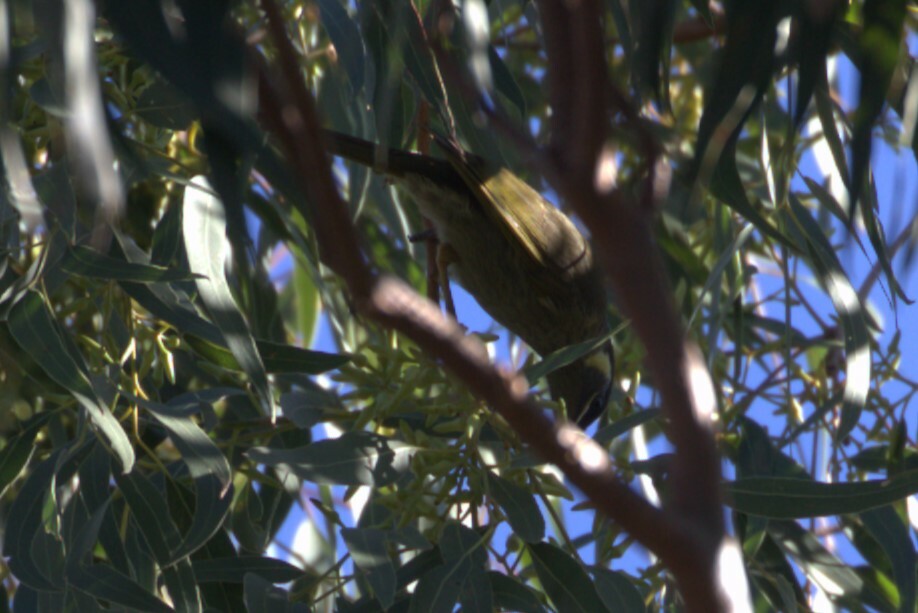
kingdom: Animalia
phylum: Chordata
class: Aves
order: Passeriformes
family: Meliphagidae
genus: Meliphaga
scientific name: Meliphaga lewinii
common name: Lewin's honeyeater
